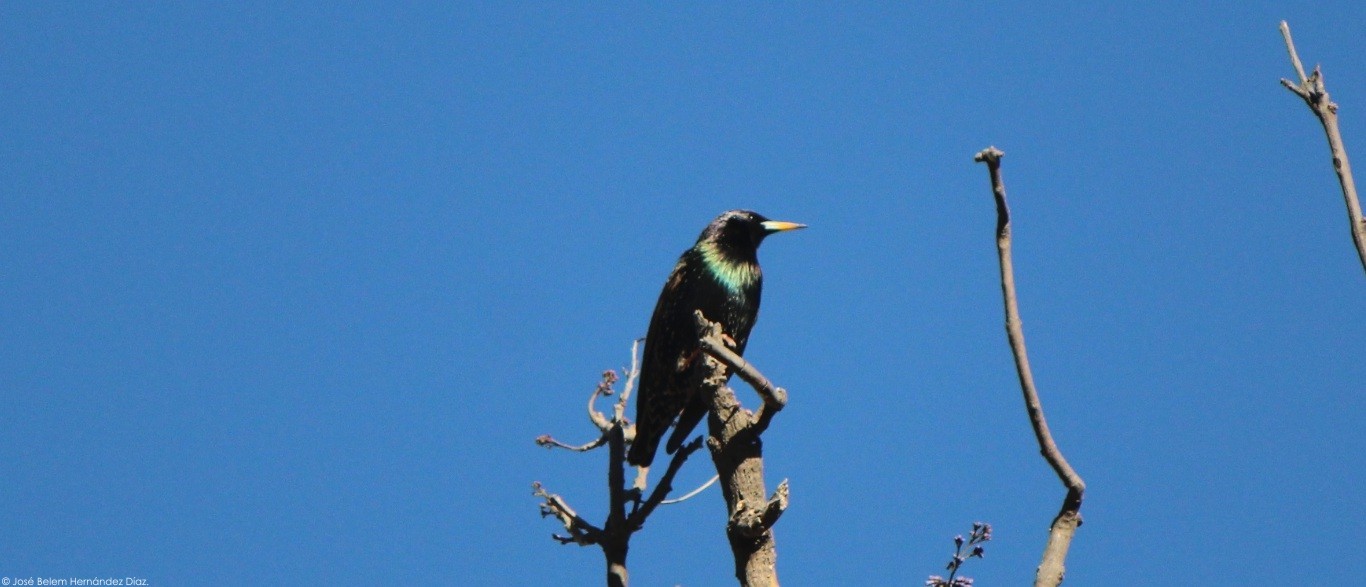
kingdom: Animalia
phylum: Chordata
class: Aves
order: Passeriformes
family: Sturnidae
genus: Sturnus
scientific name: Sturnus vulgaris
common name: Common starling
